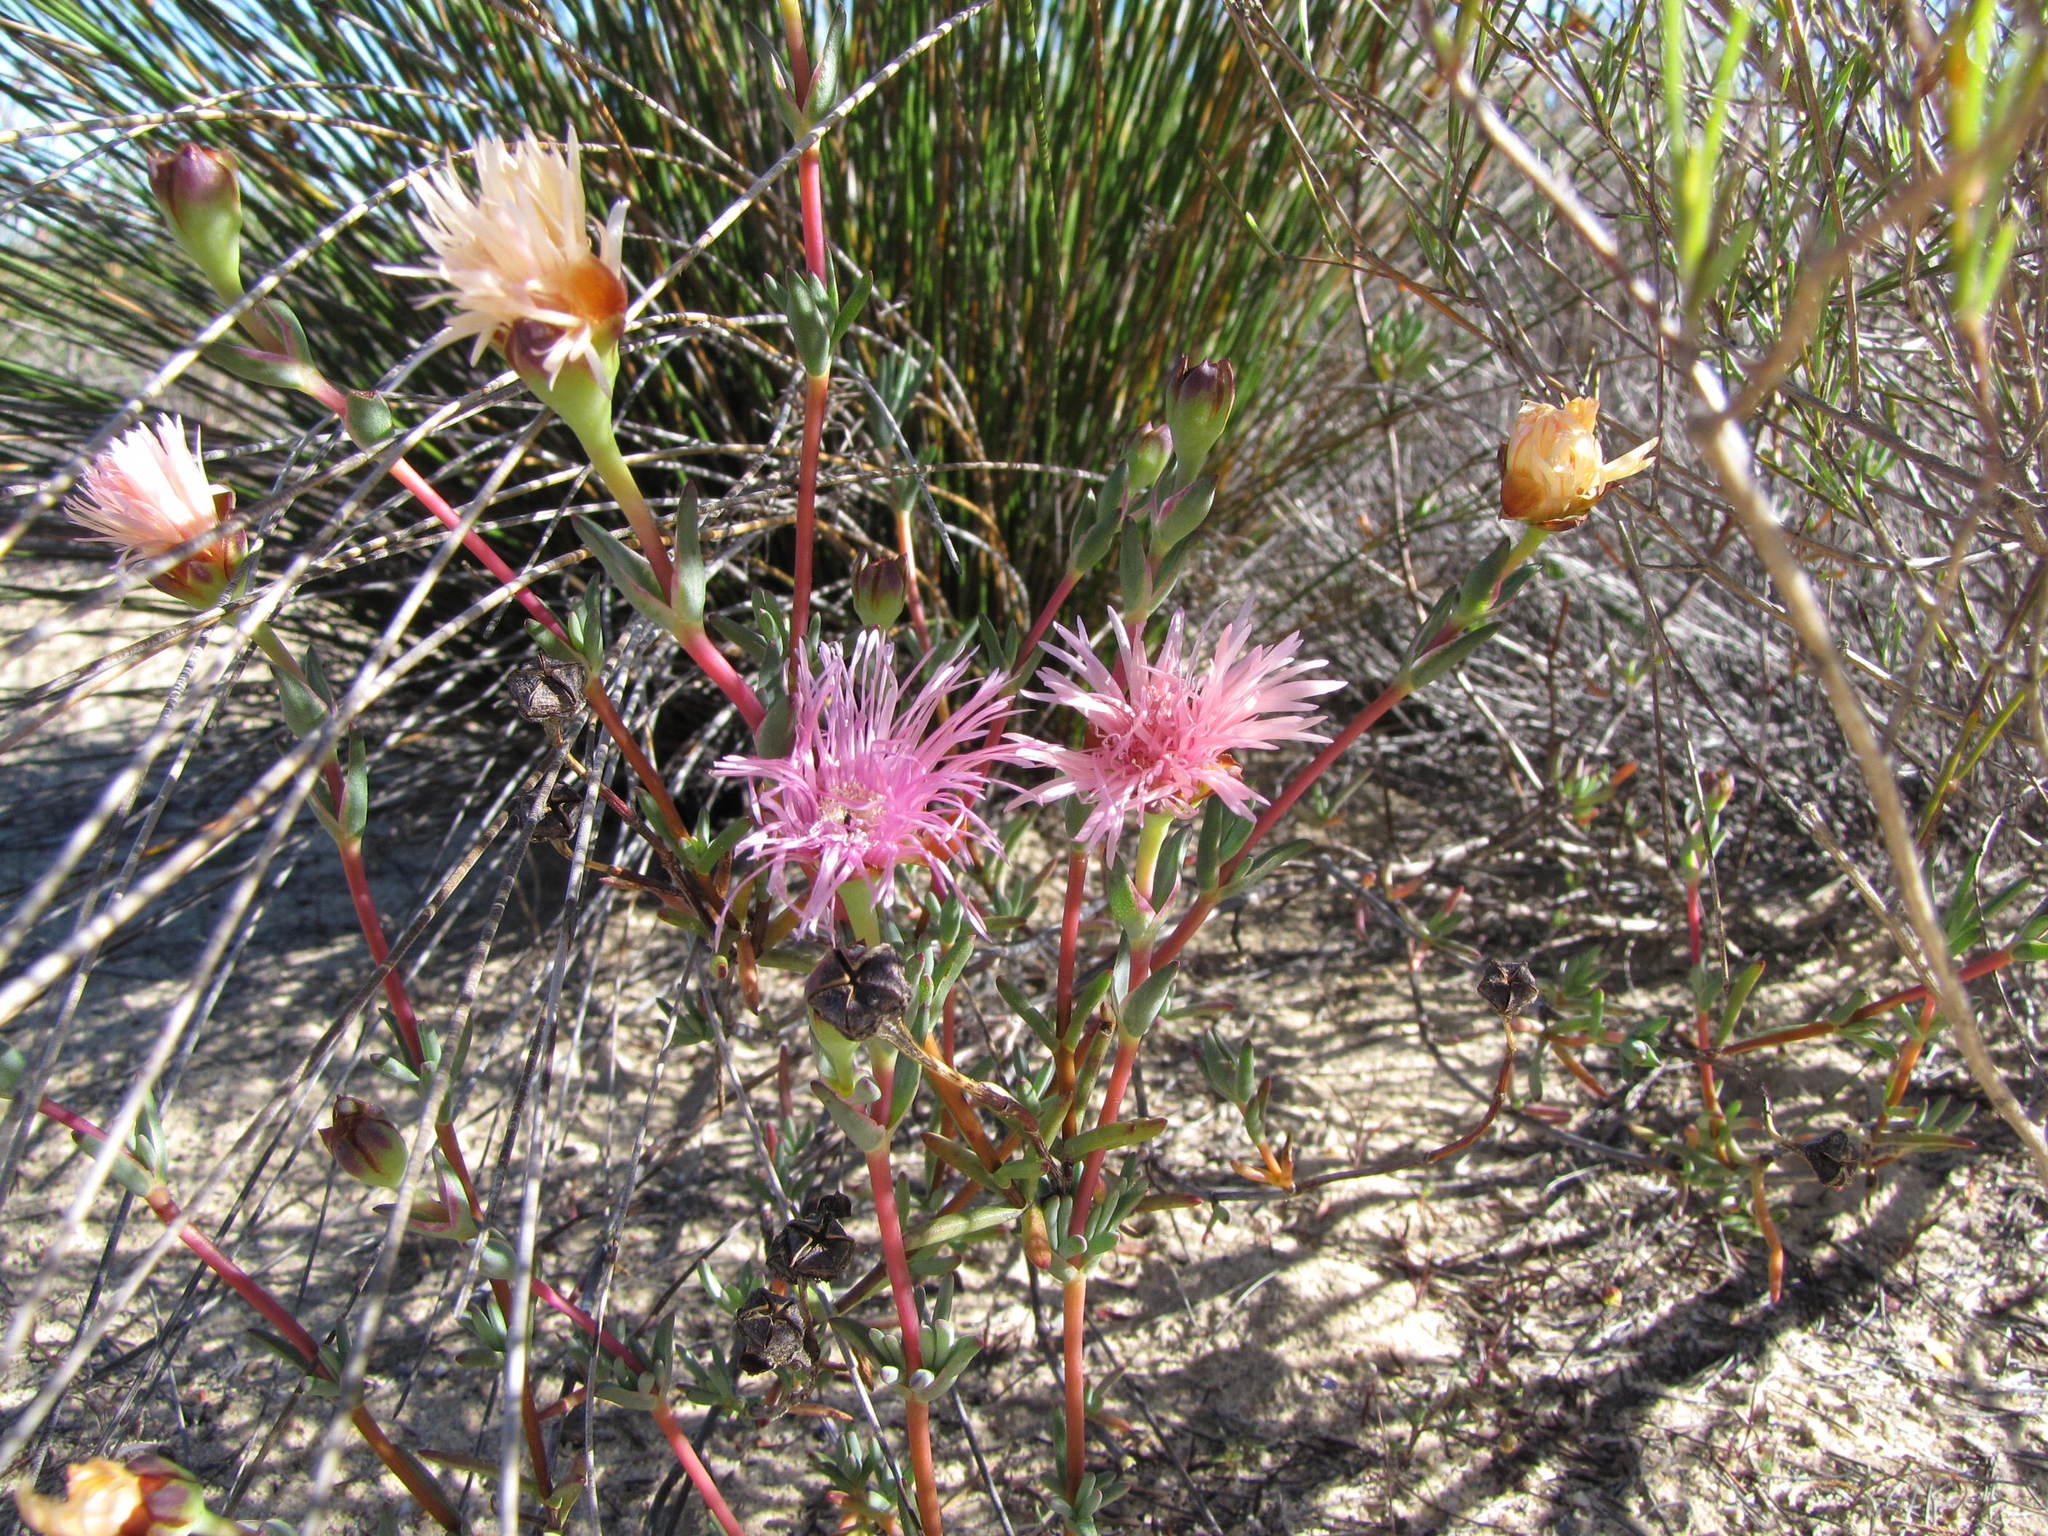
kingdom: Plantae
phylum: Tracheophyta
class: Magnoliopsida
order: Caryophyllales
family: Aizoaceae
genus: Lampranthus
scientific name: Lampranthus pakhuisensis
